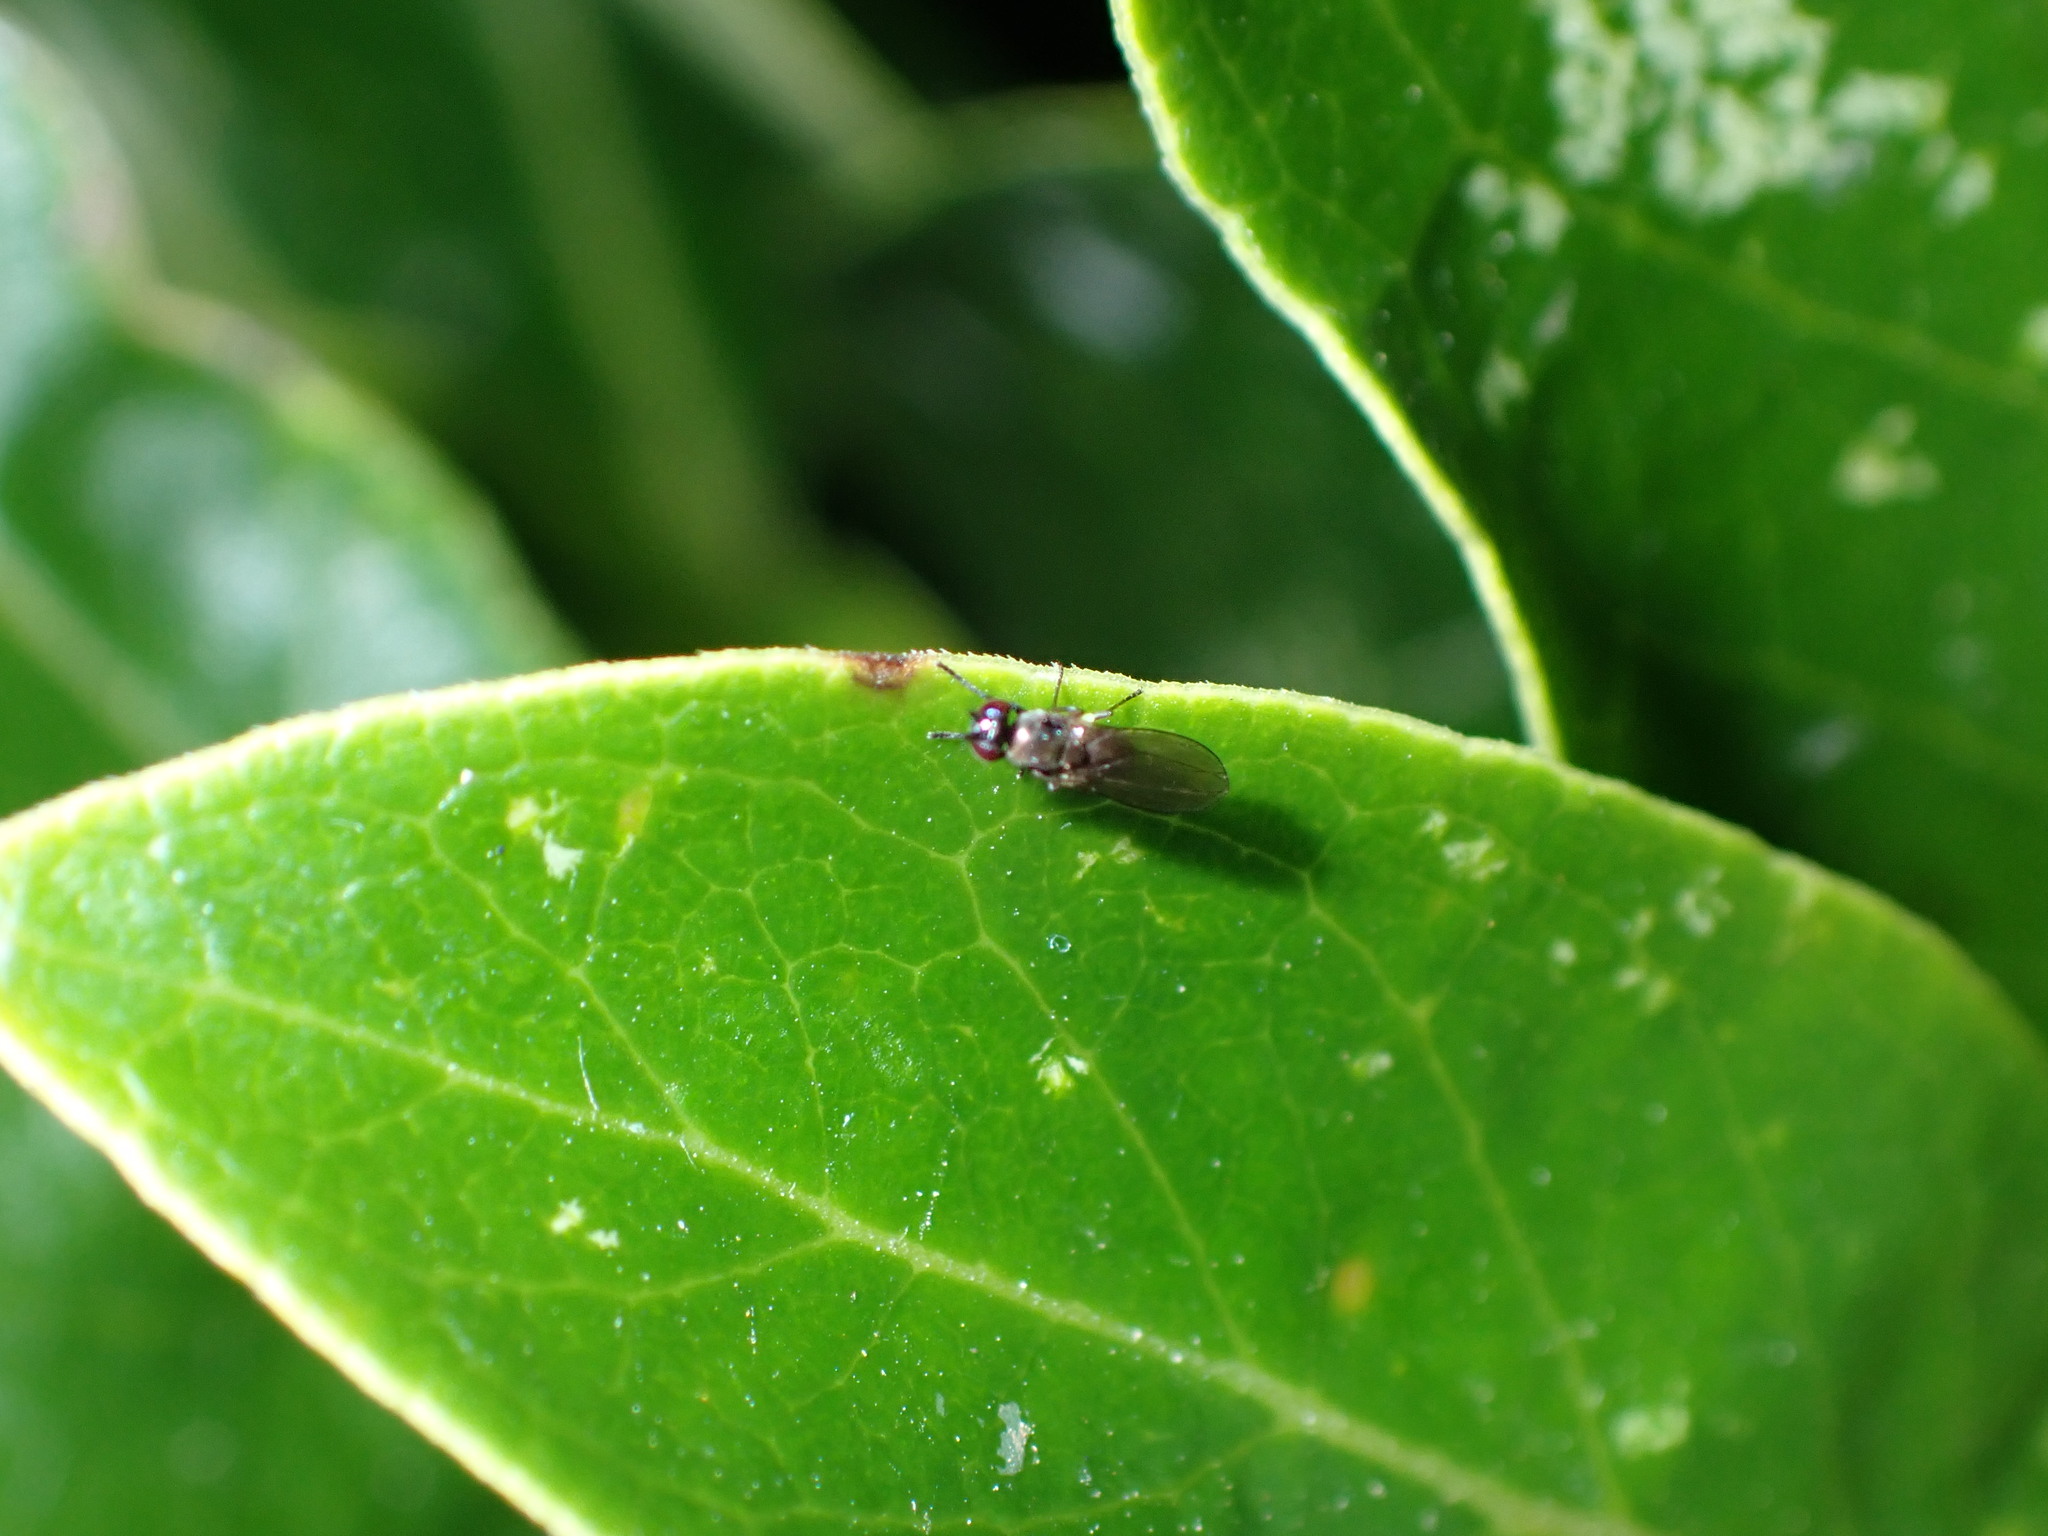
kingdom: Animalia
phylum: Arthropoda
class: Insecta
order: Diptera
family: Ephydridae
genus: Hydrellia
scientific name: Hydrellia tritici
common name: Shore fly
